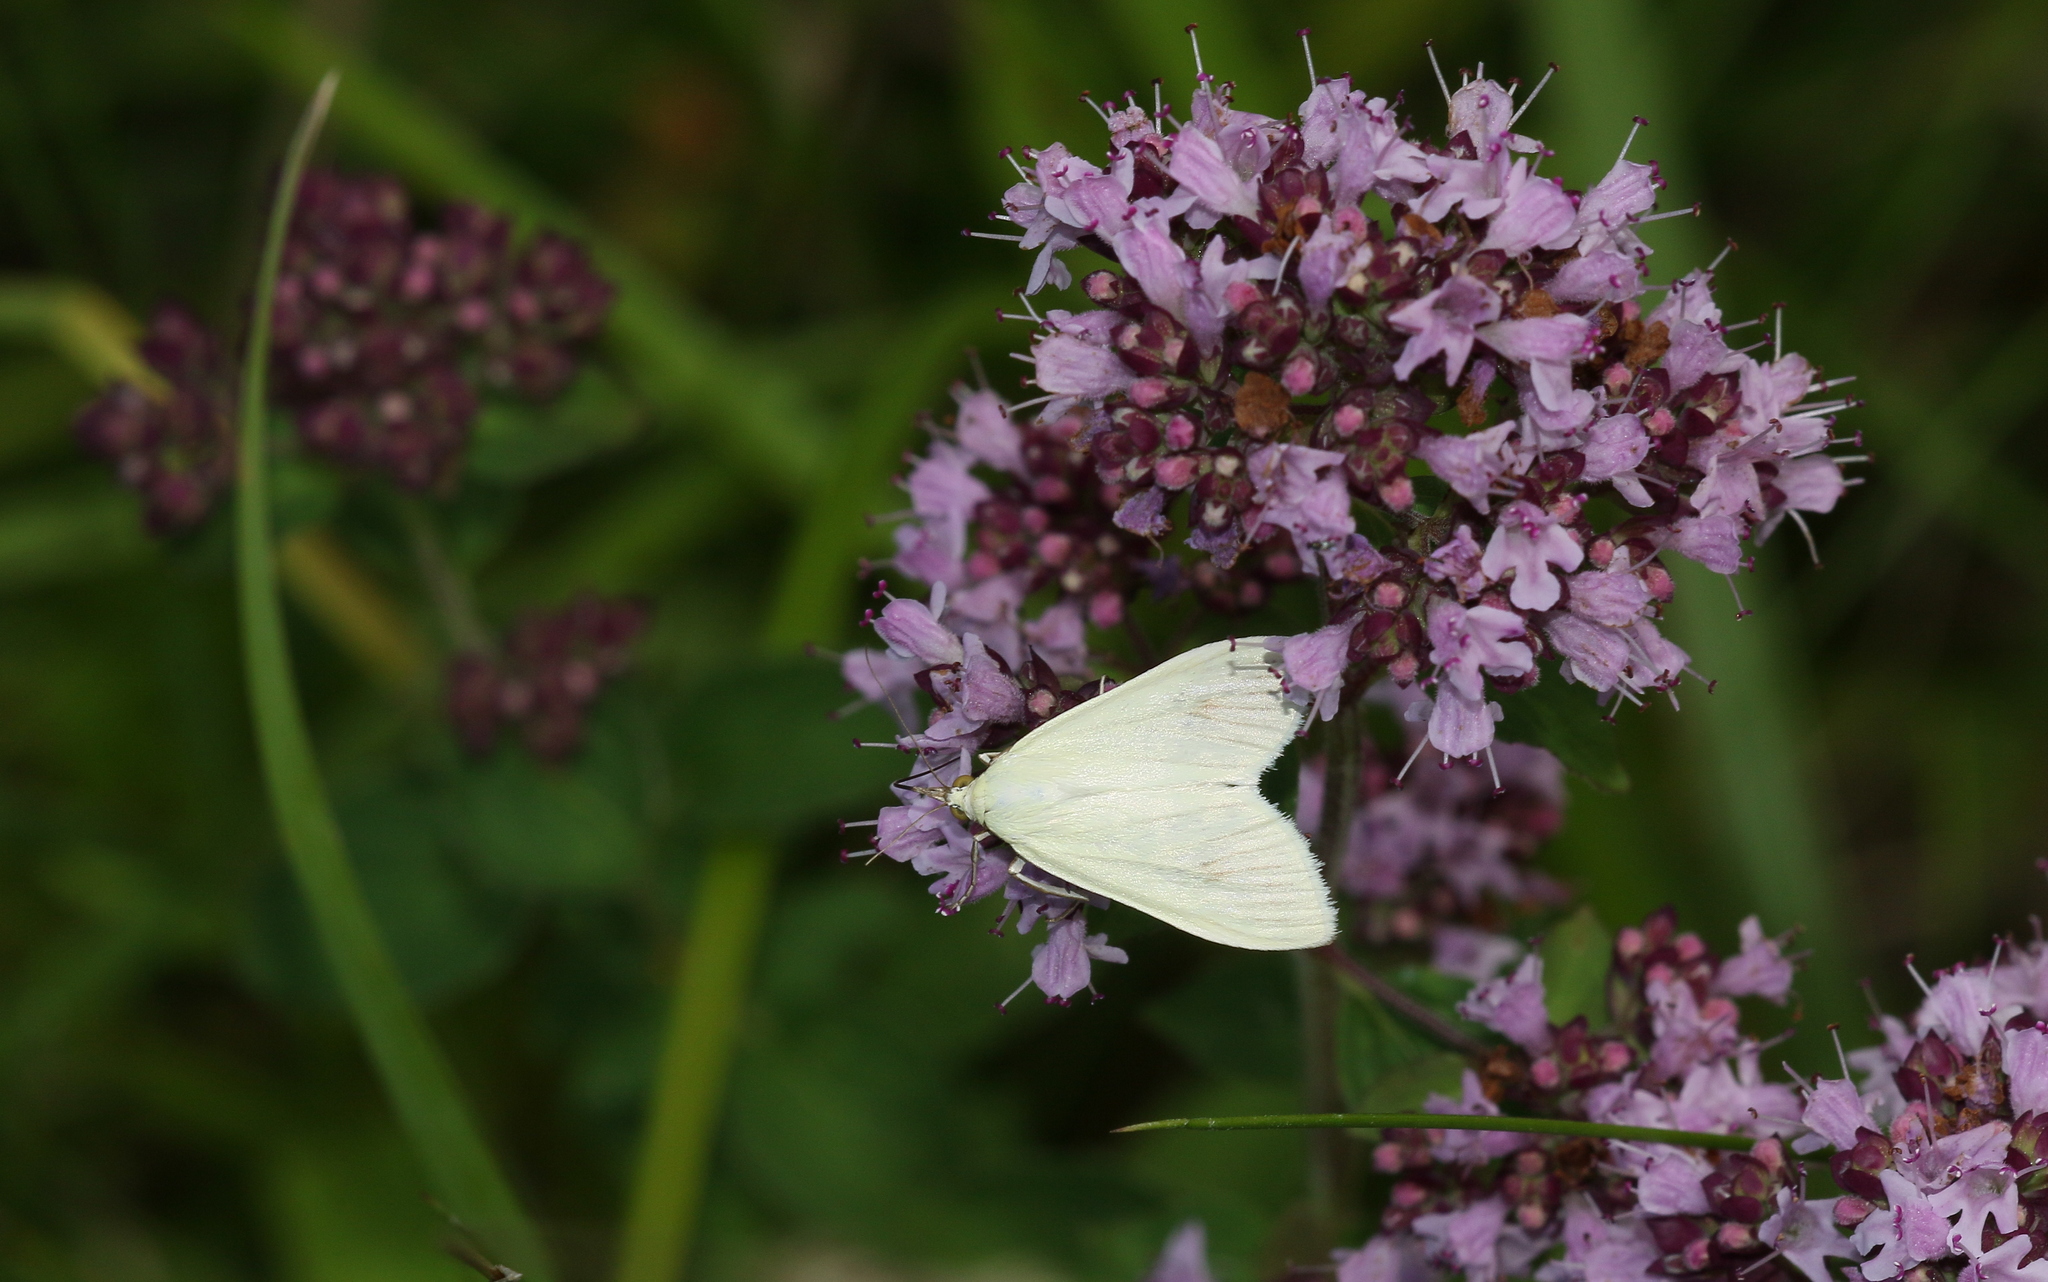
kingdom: Animalia
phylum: Arthropoda
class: Insecta
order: Lepidoptera
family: Crambidae
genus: Sitochroa
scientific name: Sitochroa palealis
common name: Greenish-yellow sitochroa moth
